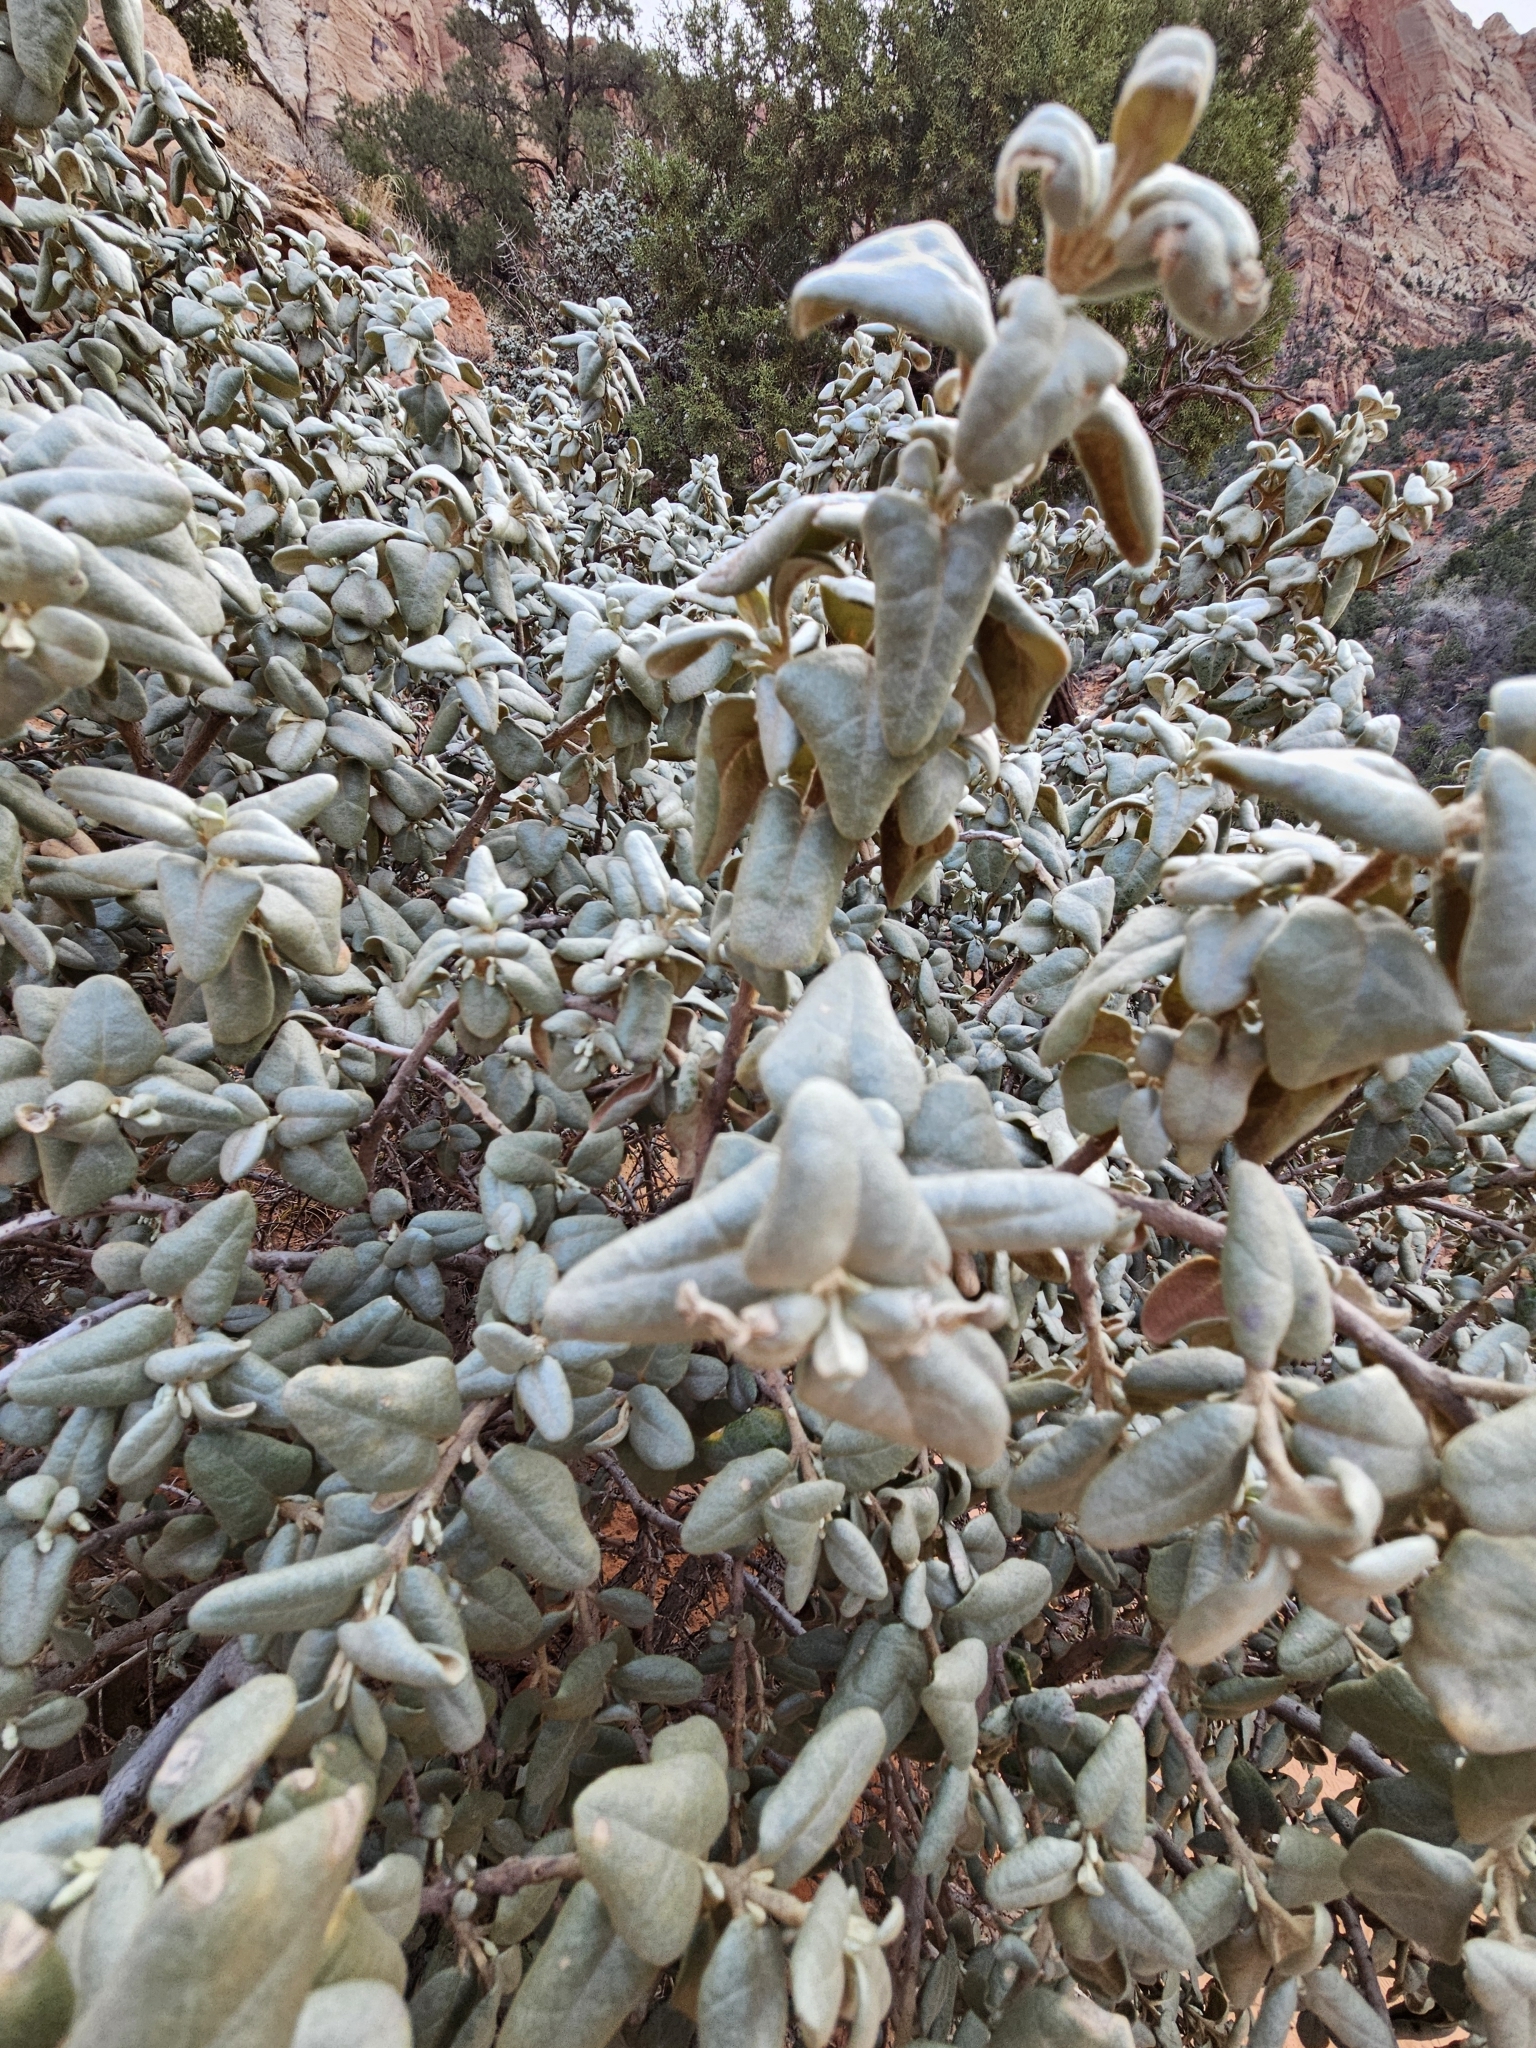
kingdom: Plantae
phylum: Tracheophyta
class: Magnoliopsida
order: Rosales
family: Elaeagnaceae
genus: Shepherdia
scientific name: Shepherdia rotundifolia
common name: Silverscale
